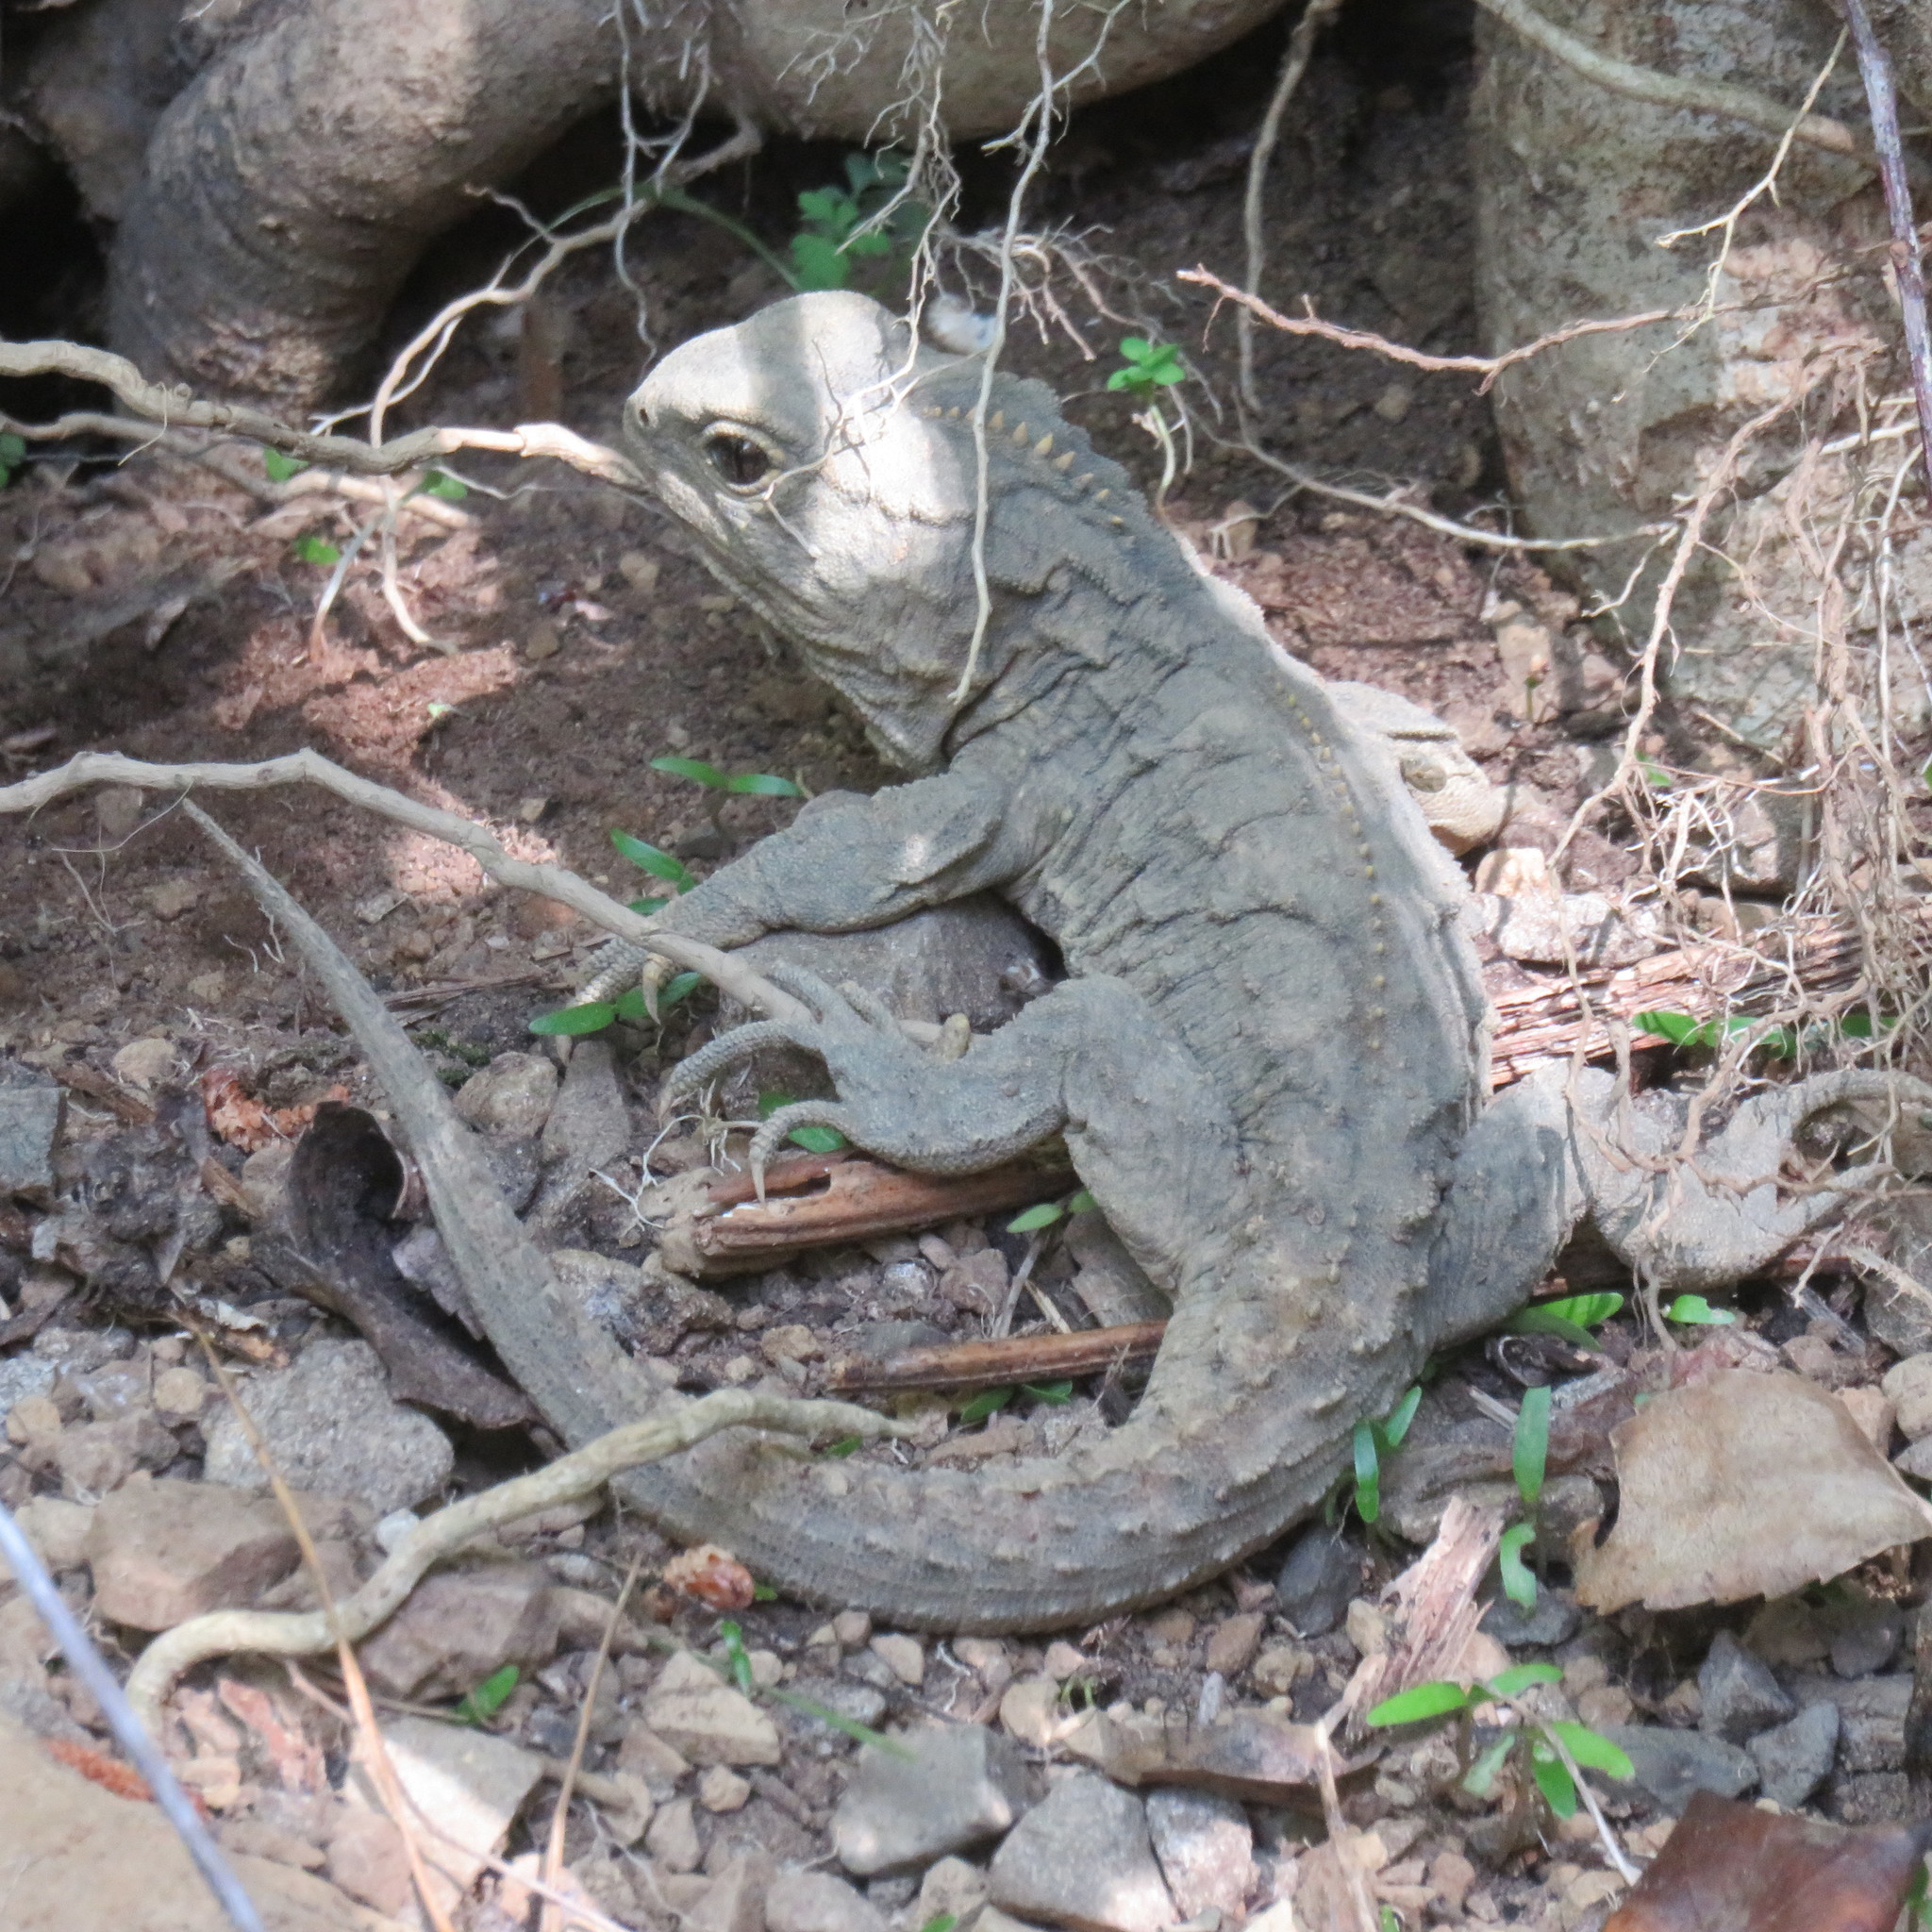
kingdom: Animalia
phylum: Chordata
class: Sphenodontia
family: Sphenodontidae
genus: Sphenodon
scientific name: Sphenodon punctatus
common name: Tuatara
